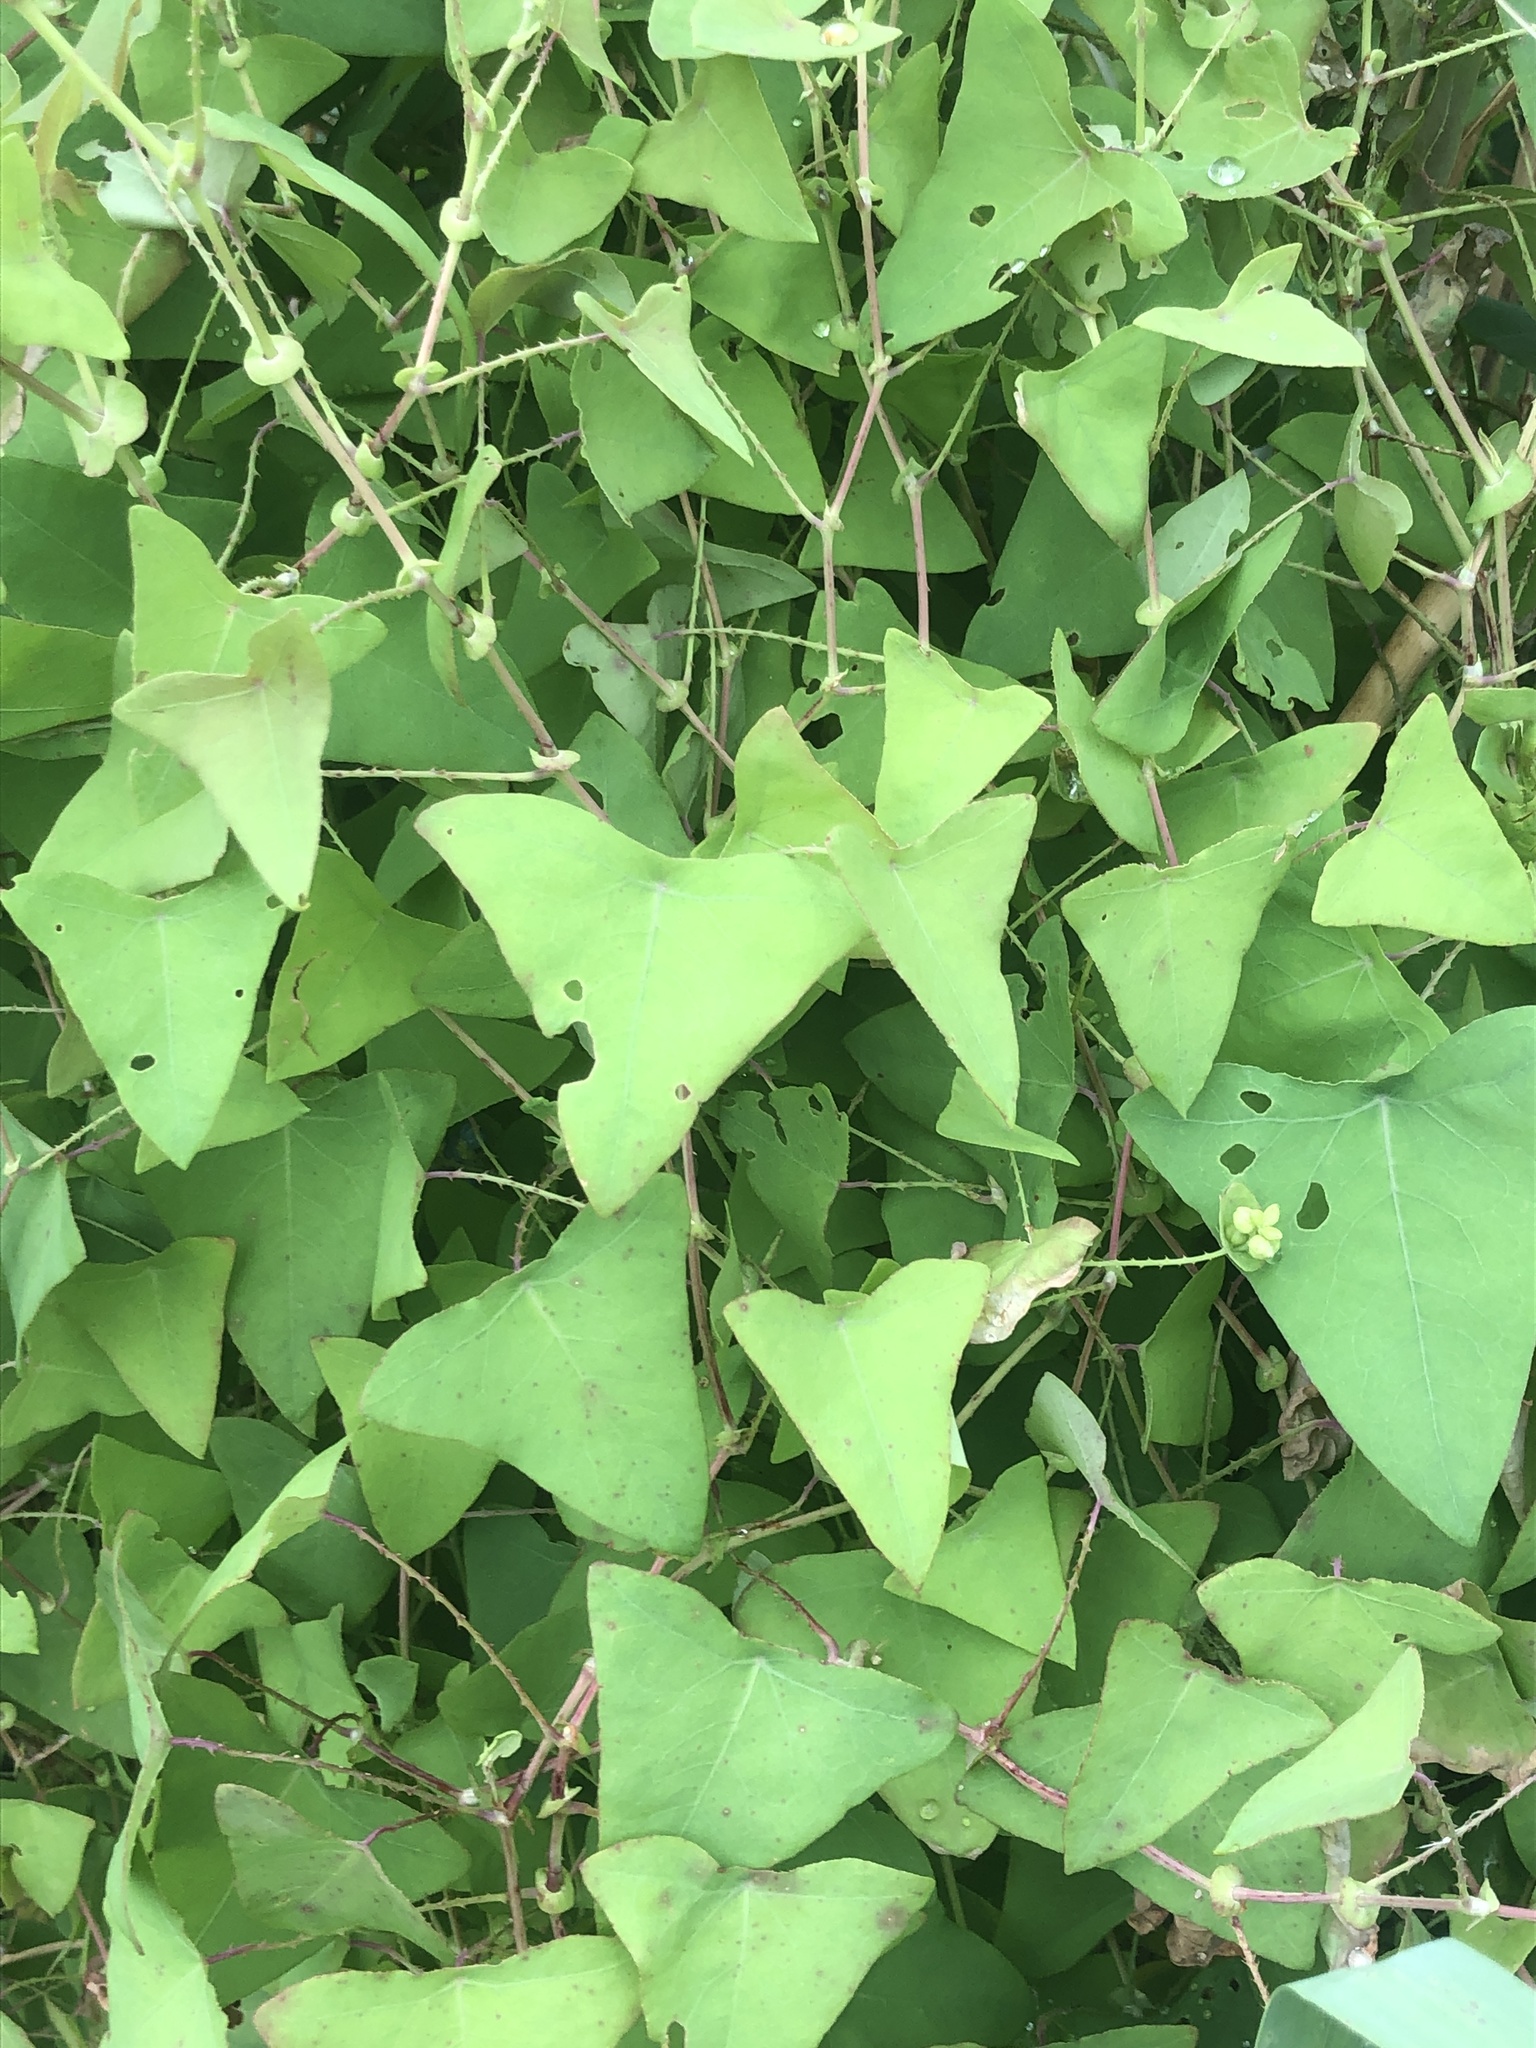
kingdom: Plantae
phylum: Tracheophyta
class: Magnoliopsida
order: Caryophyllales
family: Polygonaceae
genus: Persicaria
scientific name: Persicaria perfoliata
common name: Asiatic tearthumb
